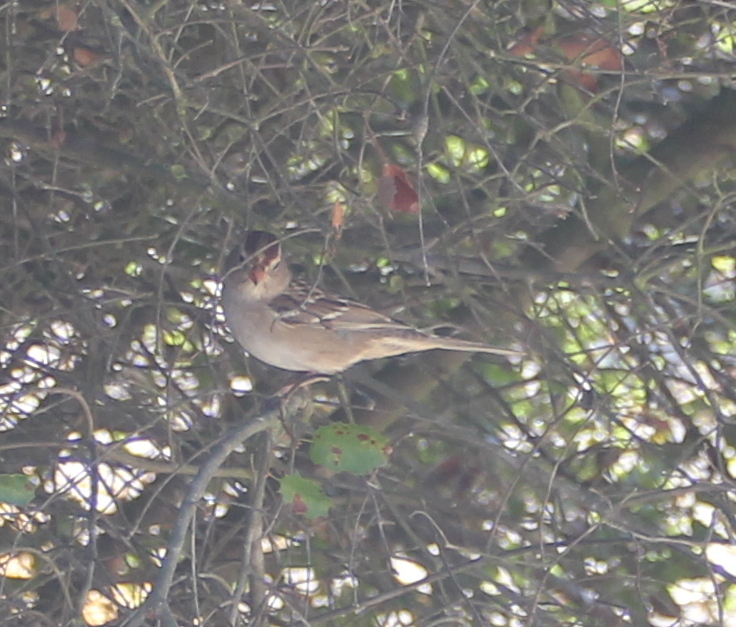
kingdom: Animalia
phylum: Chordata
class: Aves
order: Passeriformes
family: Passerellidae
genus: Zonotrichia
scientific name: Zonotrichia leucophrys
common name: White-crowned sparrow
